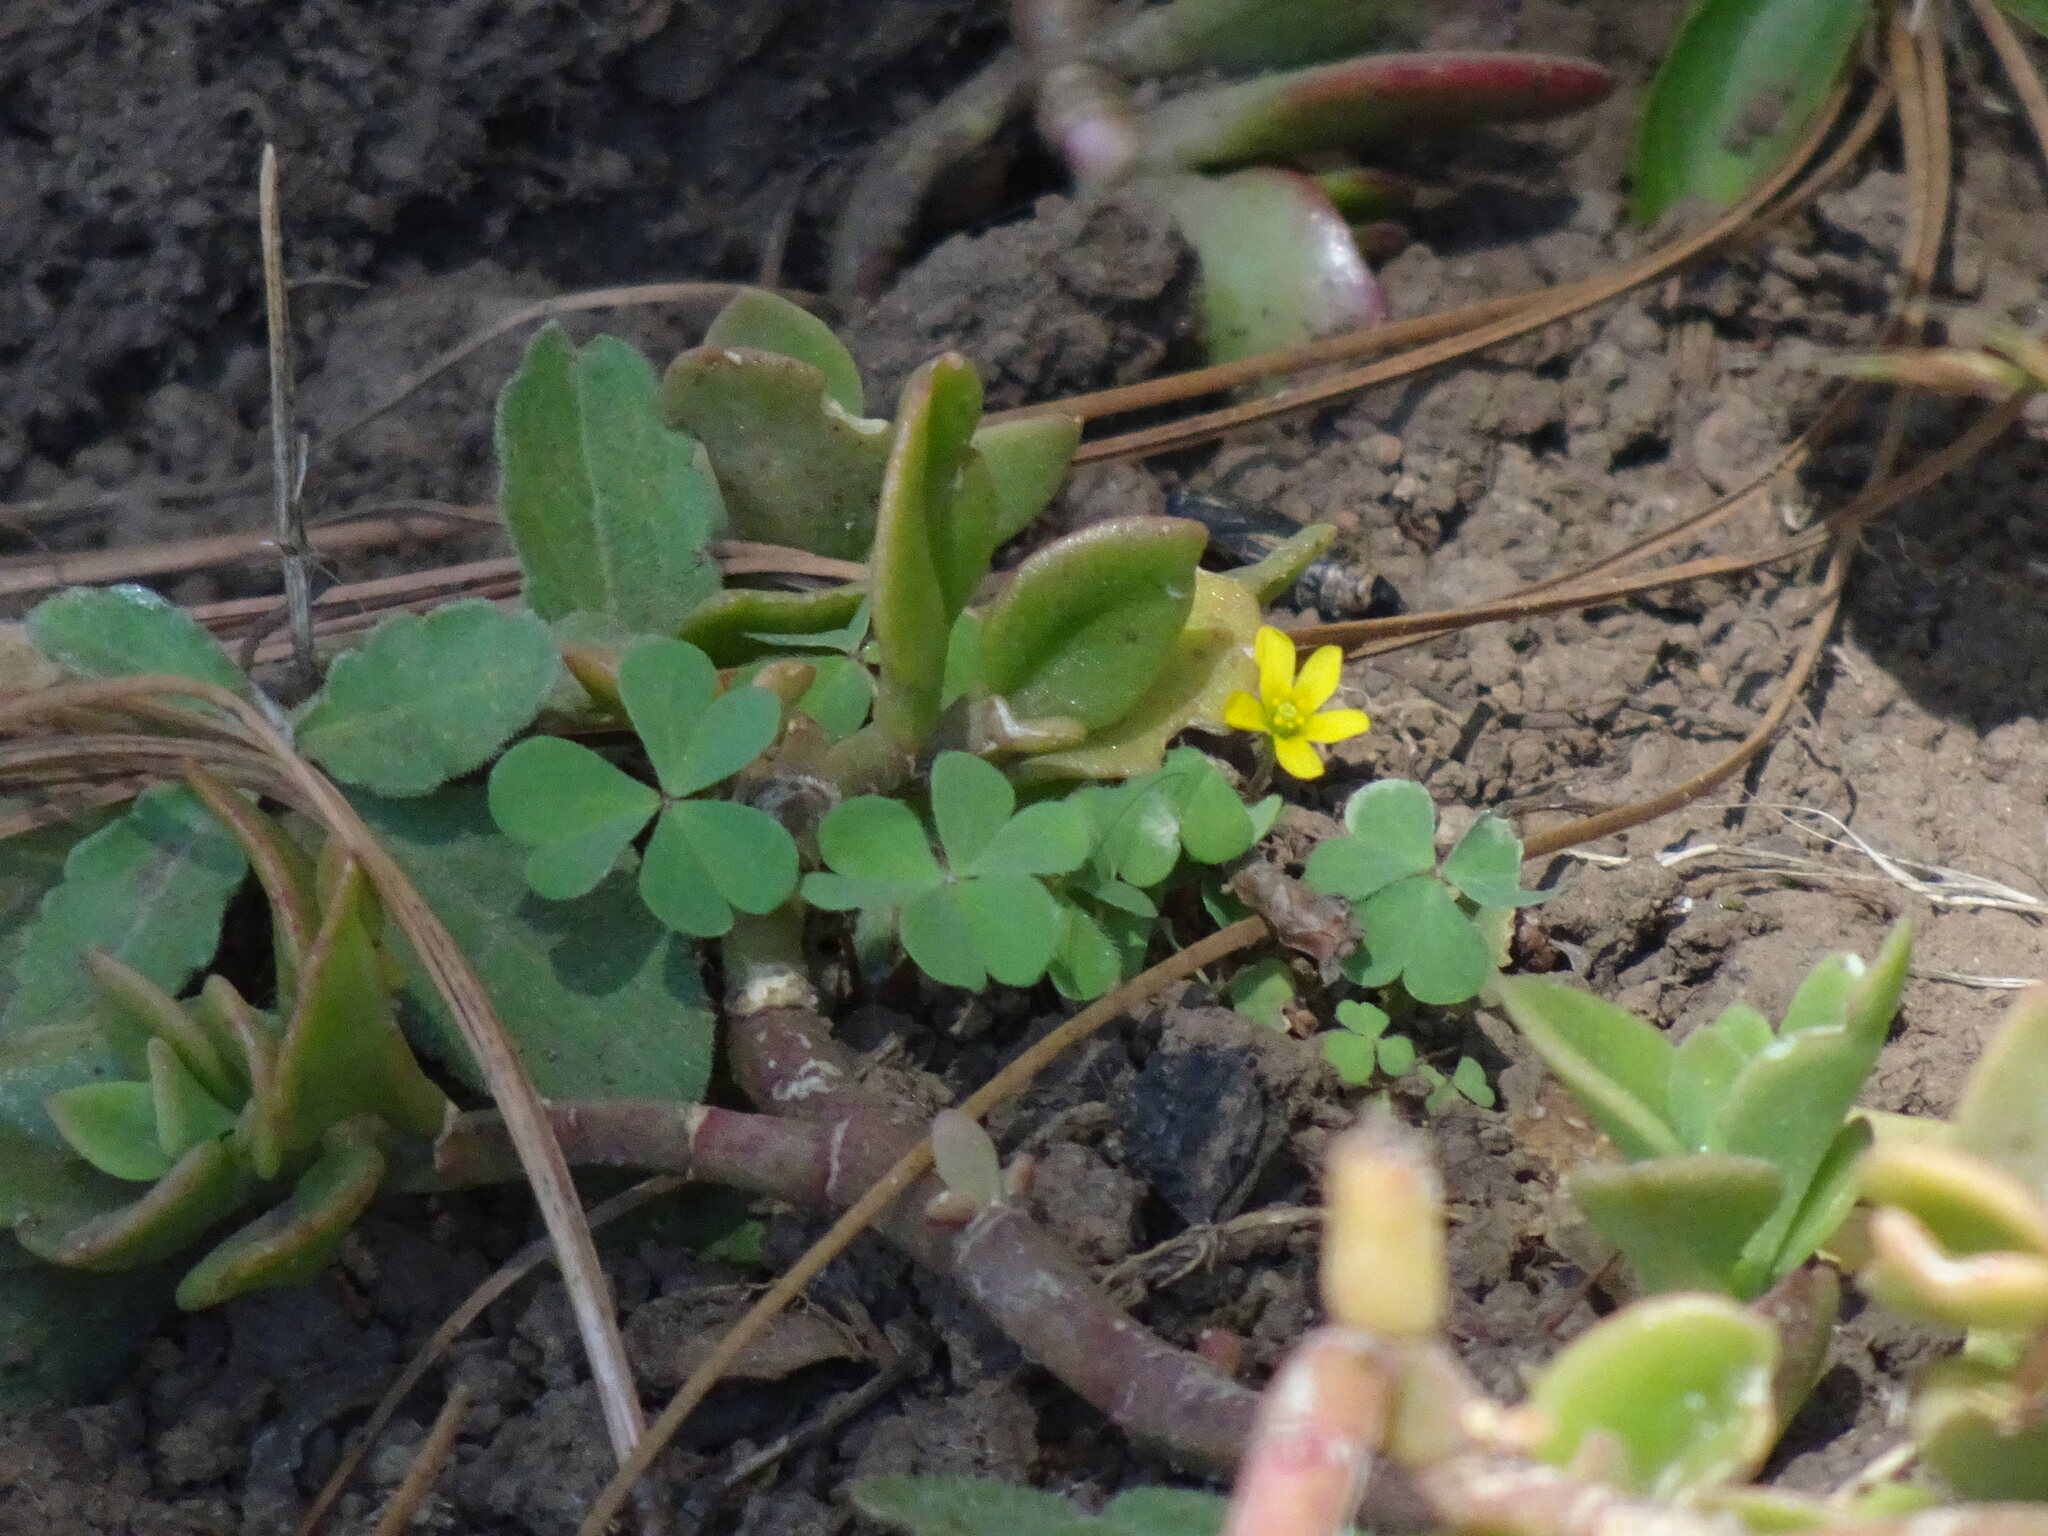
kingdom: Plantae
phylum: Tracheophyta
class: Magnoliopsida
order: Oxalidales
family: Oxalidaceae
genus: Oxalis
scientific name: Oxalis dillenii
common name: Sussex yellow-sorrel
